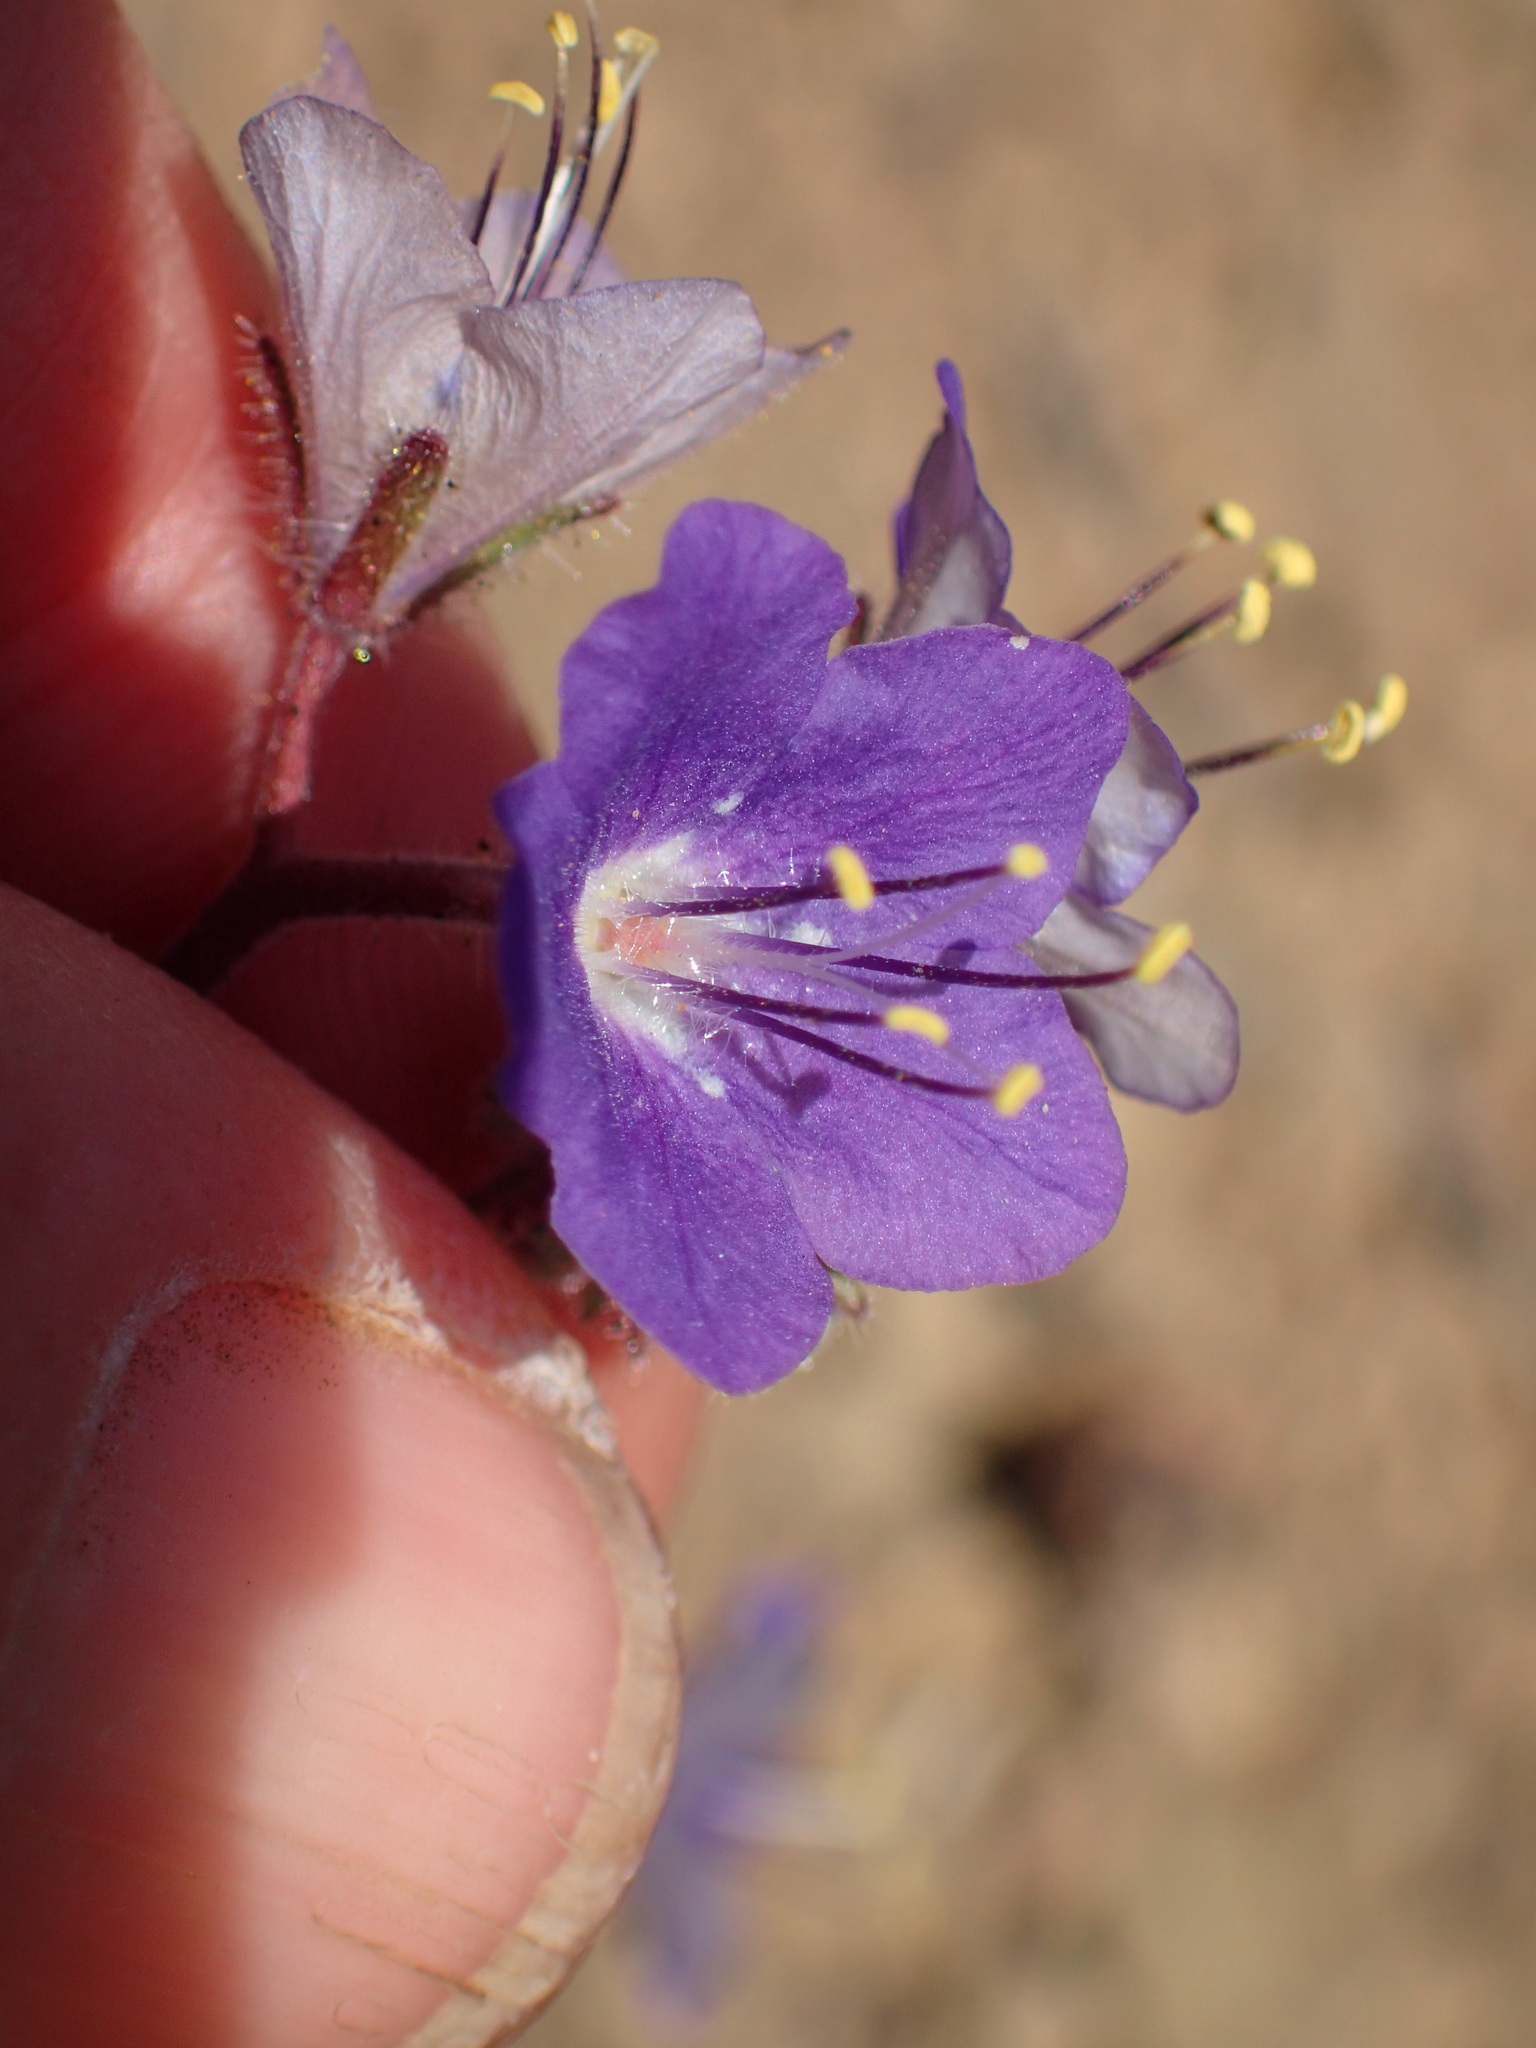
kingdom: Plantae
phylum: Tracheophyta
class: Magnoliopsida
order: Boraginales
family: Hydrophyllaceae
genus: Phacelia
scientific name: Phacelia longipes
